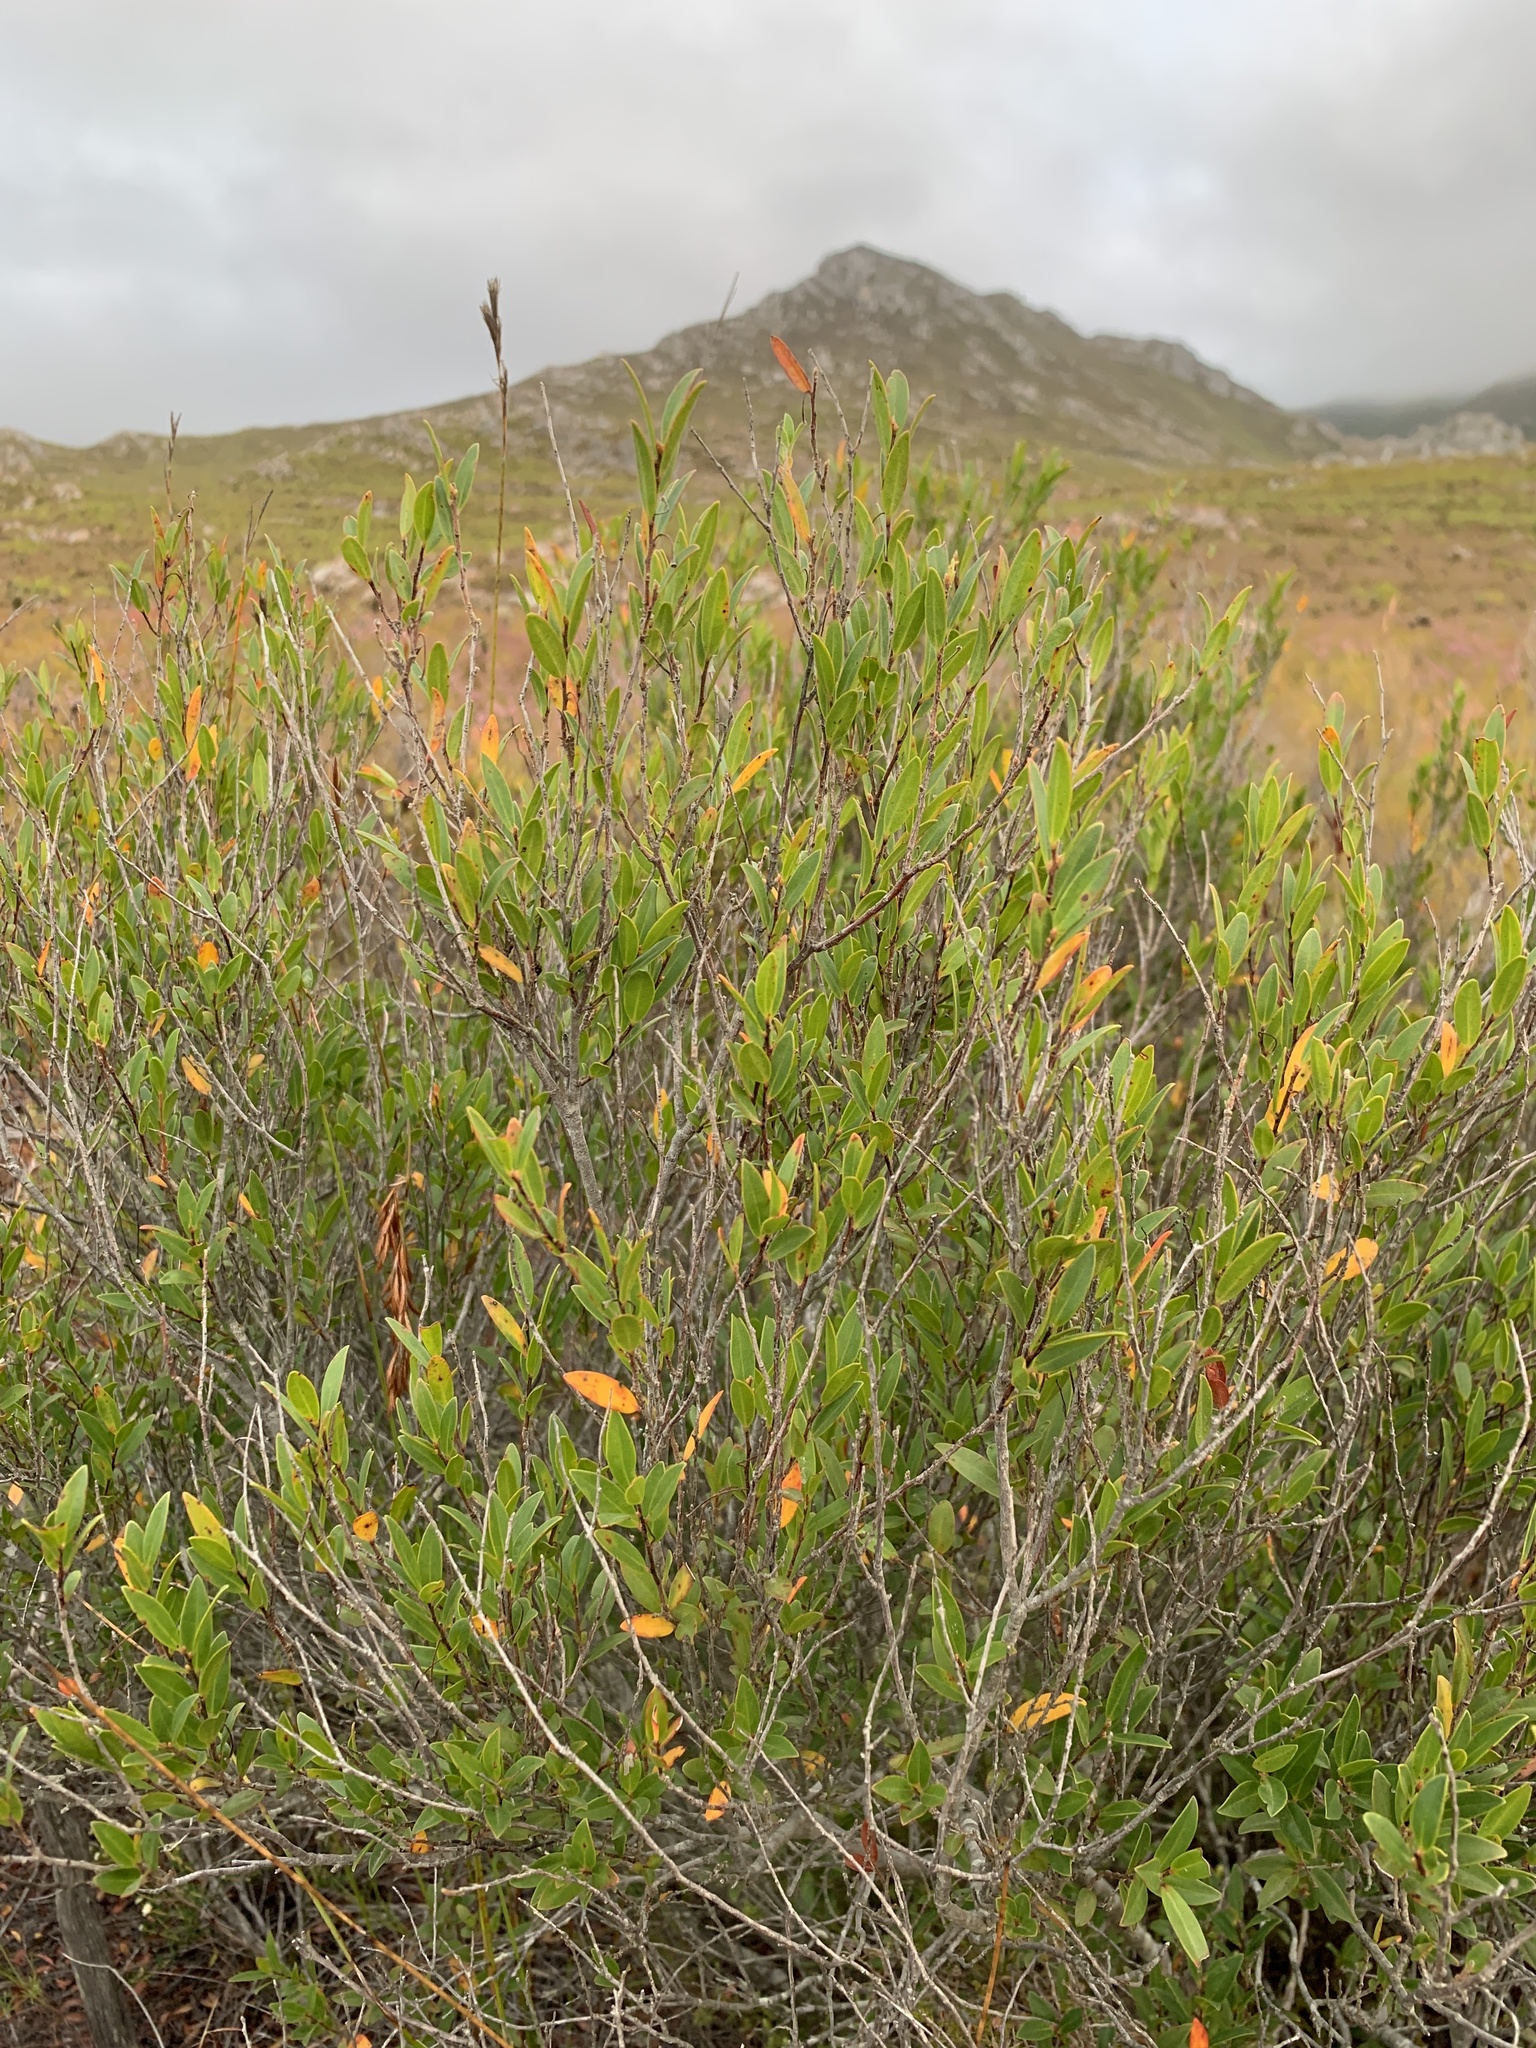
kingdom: Plantae
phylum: Tracheophyta
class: Magnoliopsida
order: Ericales
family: Ebenaceae
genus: Diospyros
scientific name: Diospyros glabra
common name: Fynbos star apple
